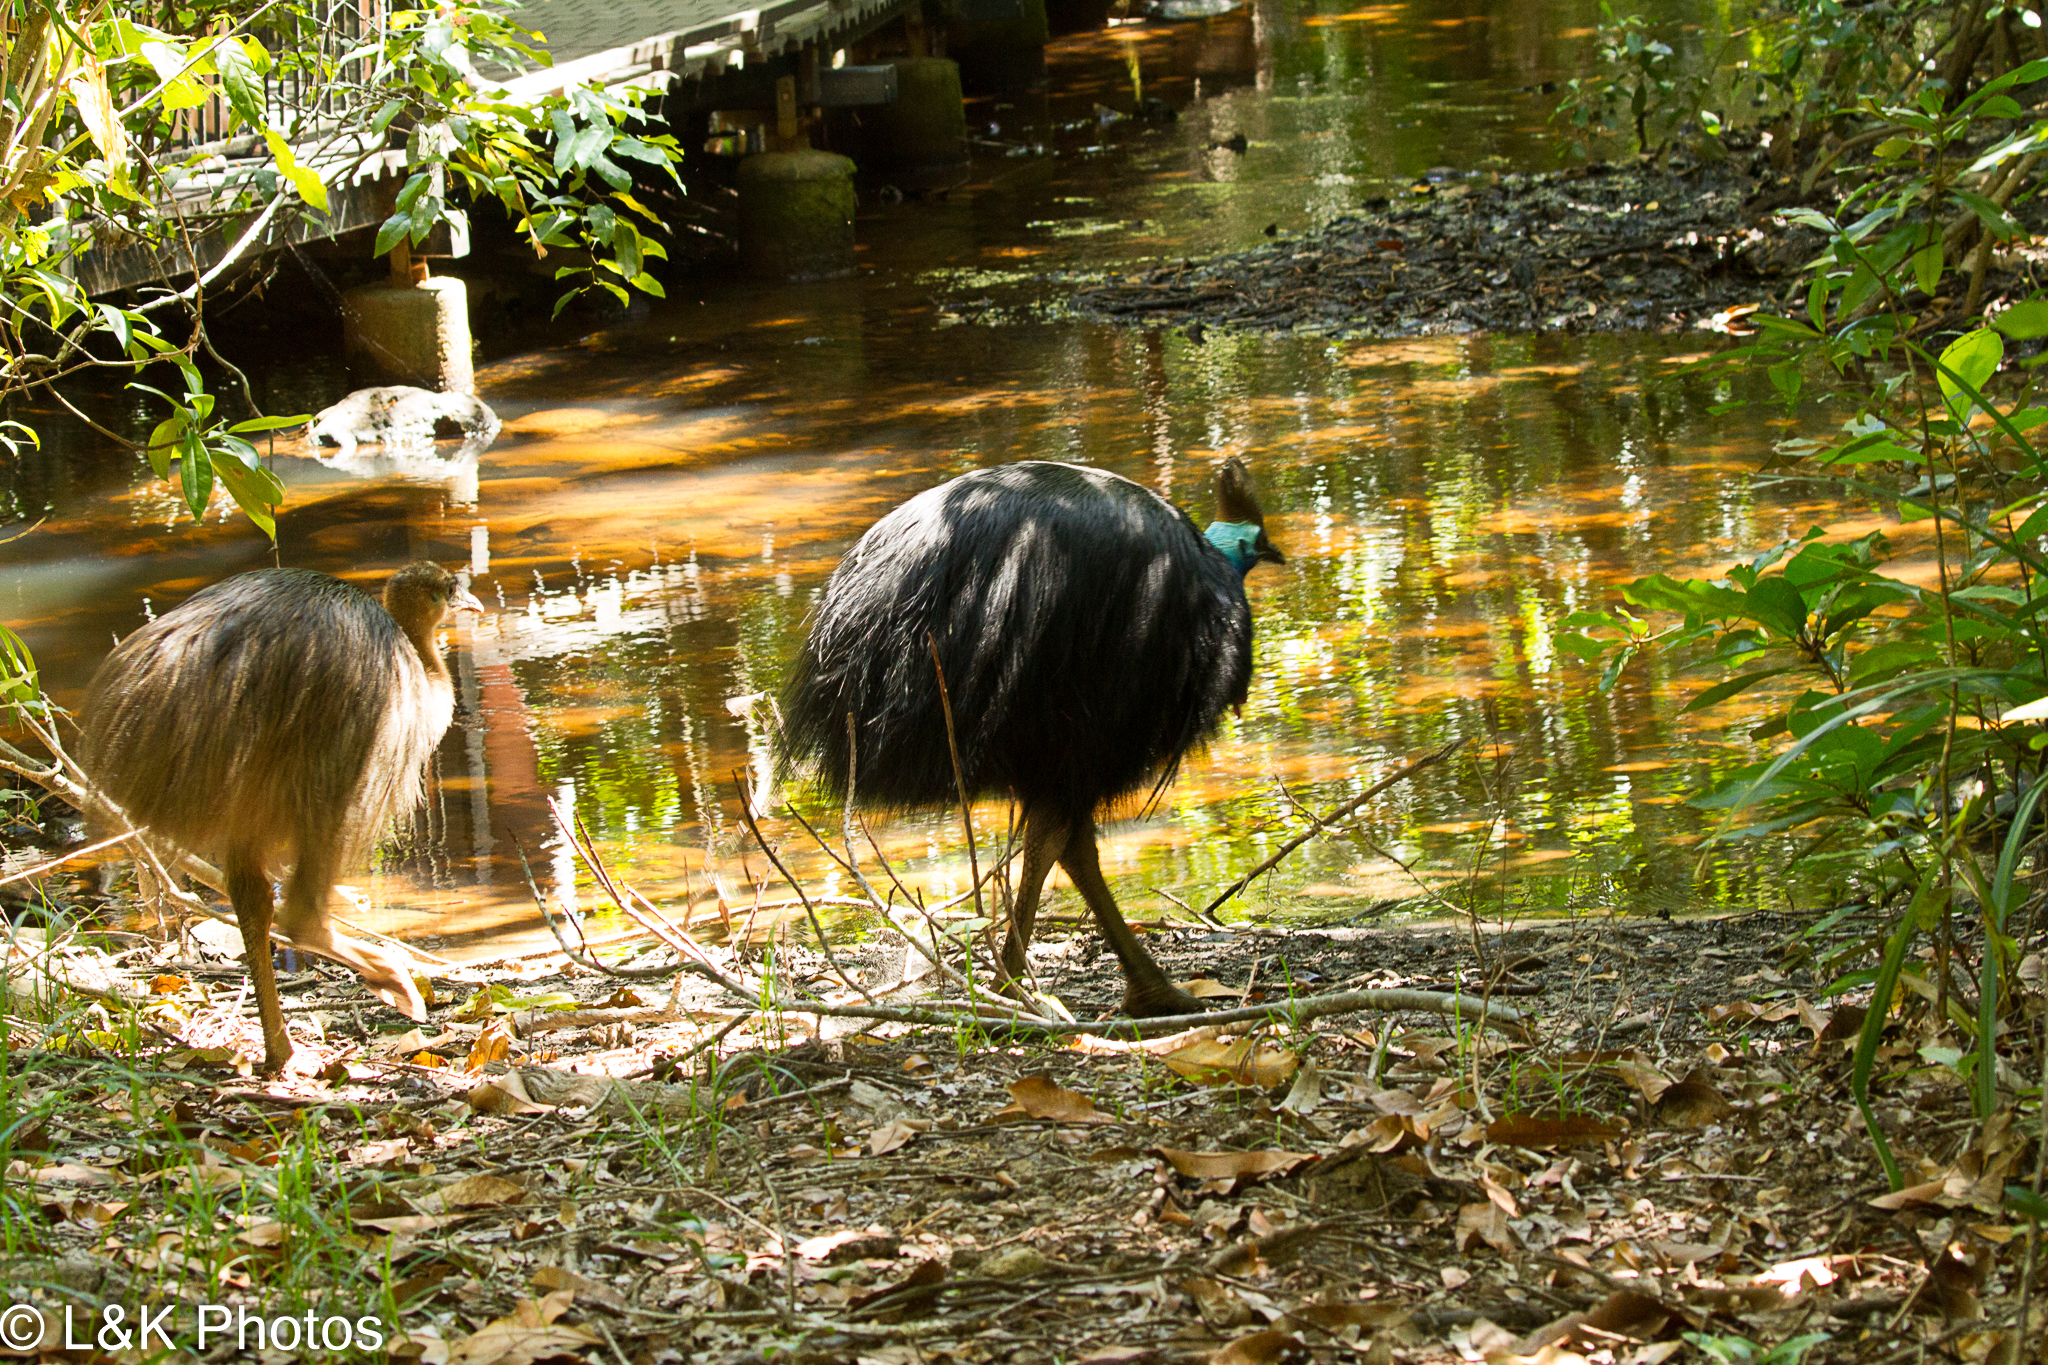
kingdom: Animalia
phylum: Chordata
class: Aves
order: Casuariiformes
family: Casuariidae
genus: Casuarius
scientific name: Casuarius casuarius
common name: Southern cassowary
